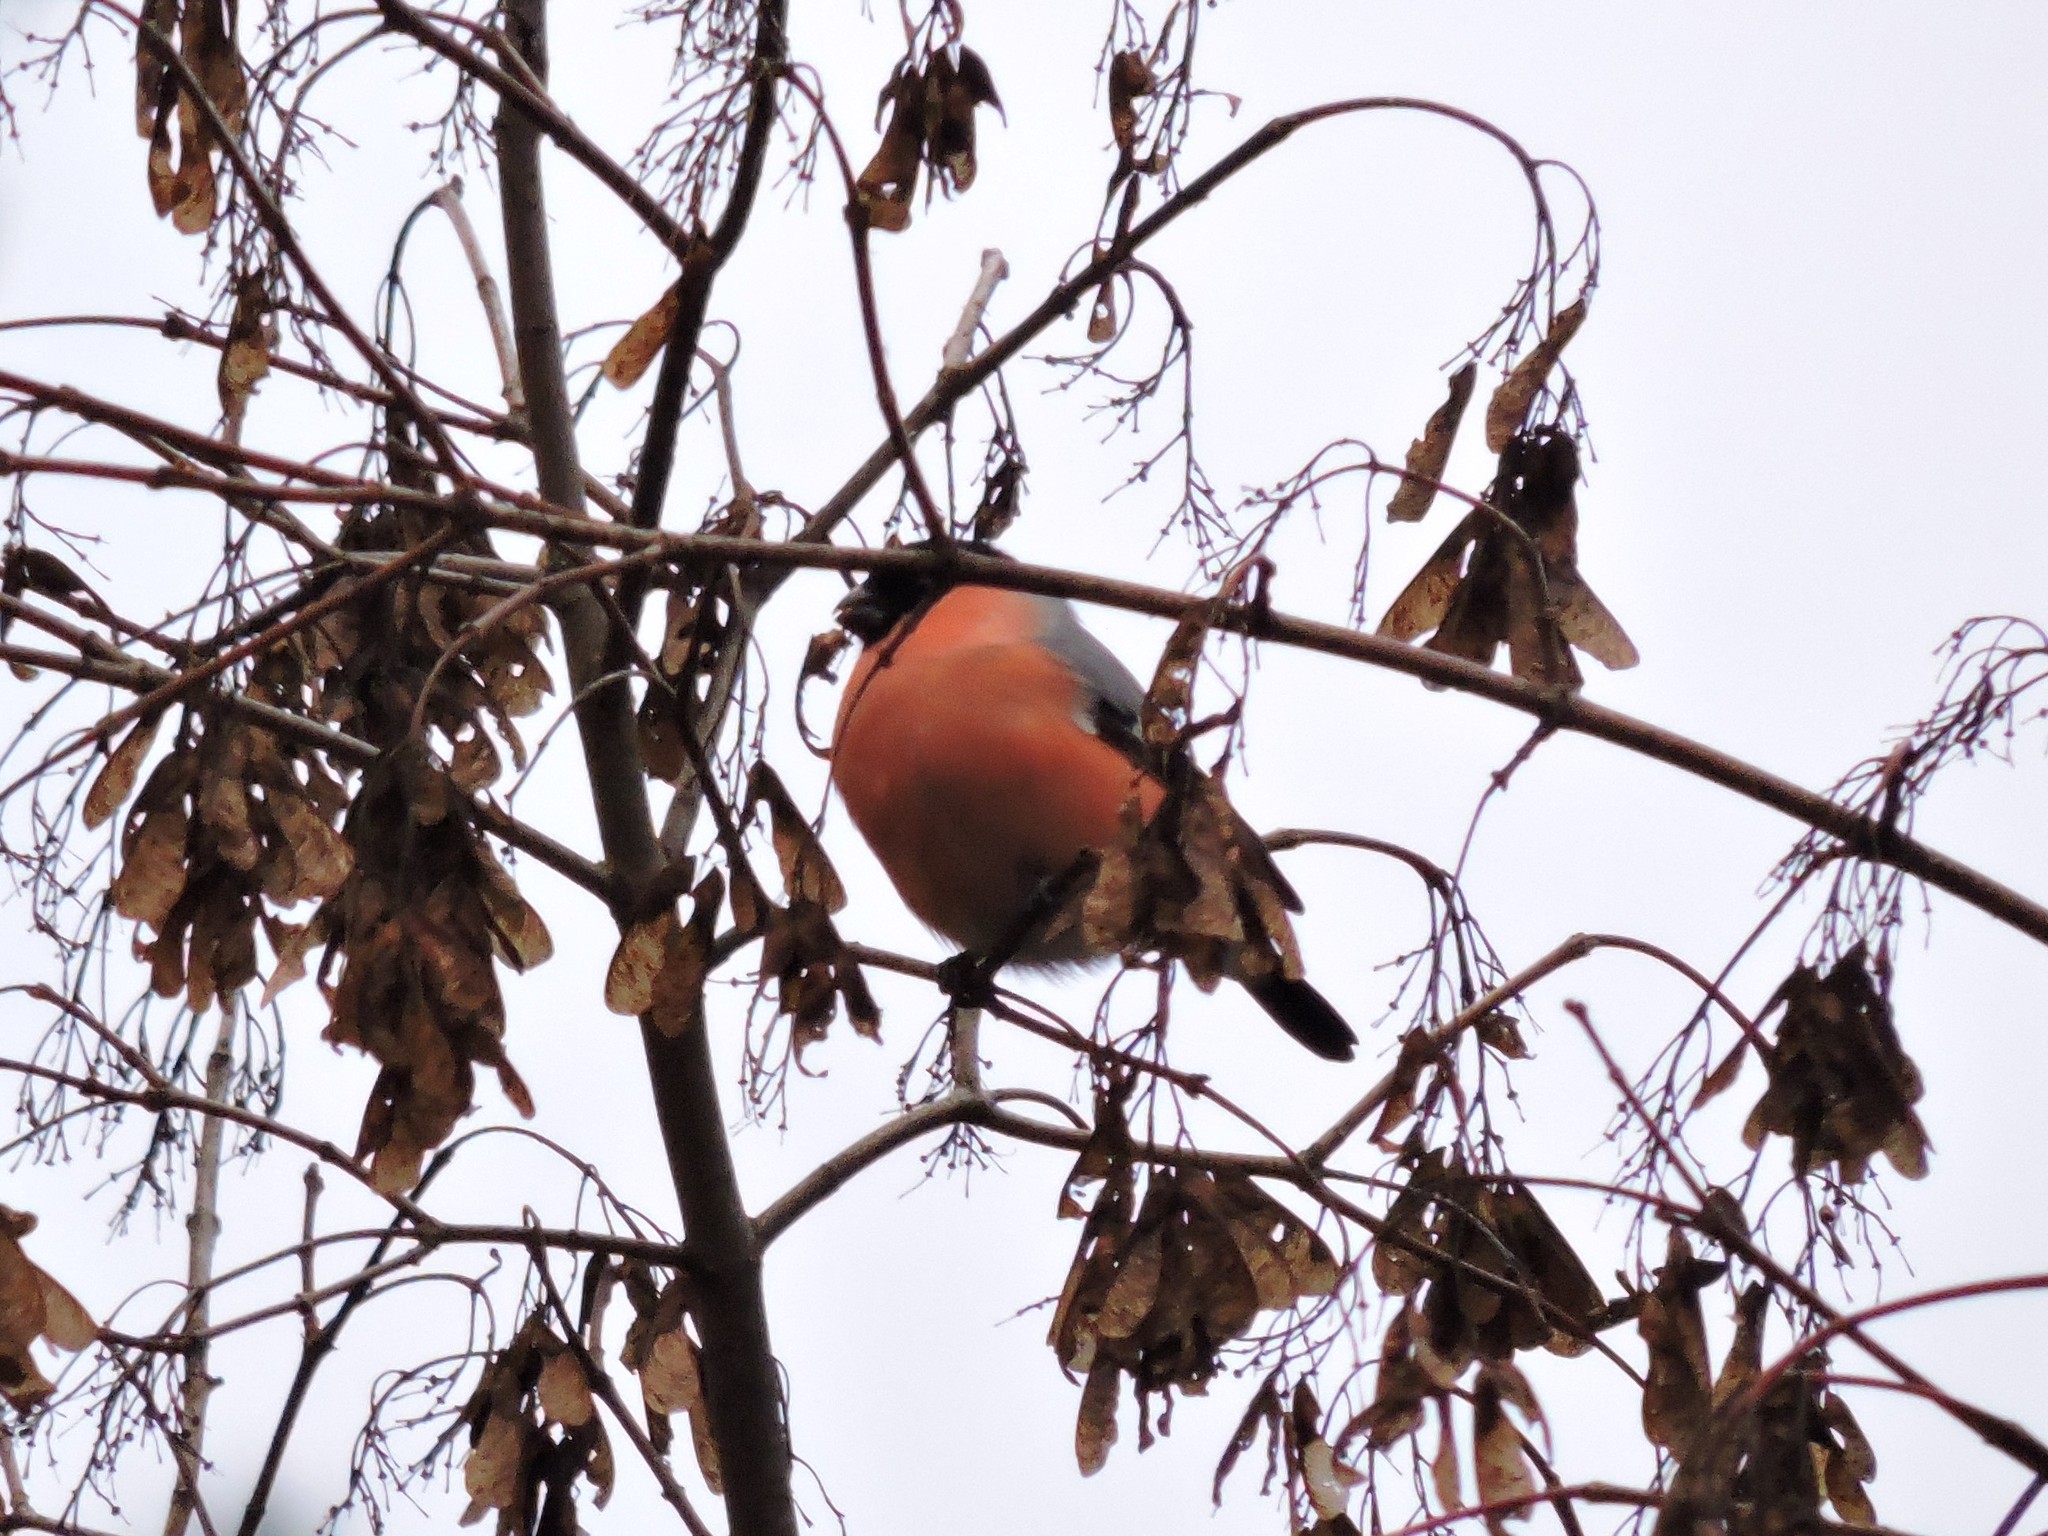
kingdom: Animalia
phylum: Chordata
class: Aves
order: Passeriformes
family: Fringillidae
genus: Pyrrhula
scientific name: Pyrrhula pyrrhula
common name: Eurasian bullfinch
